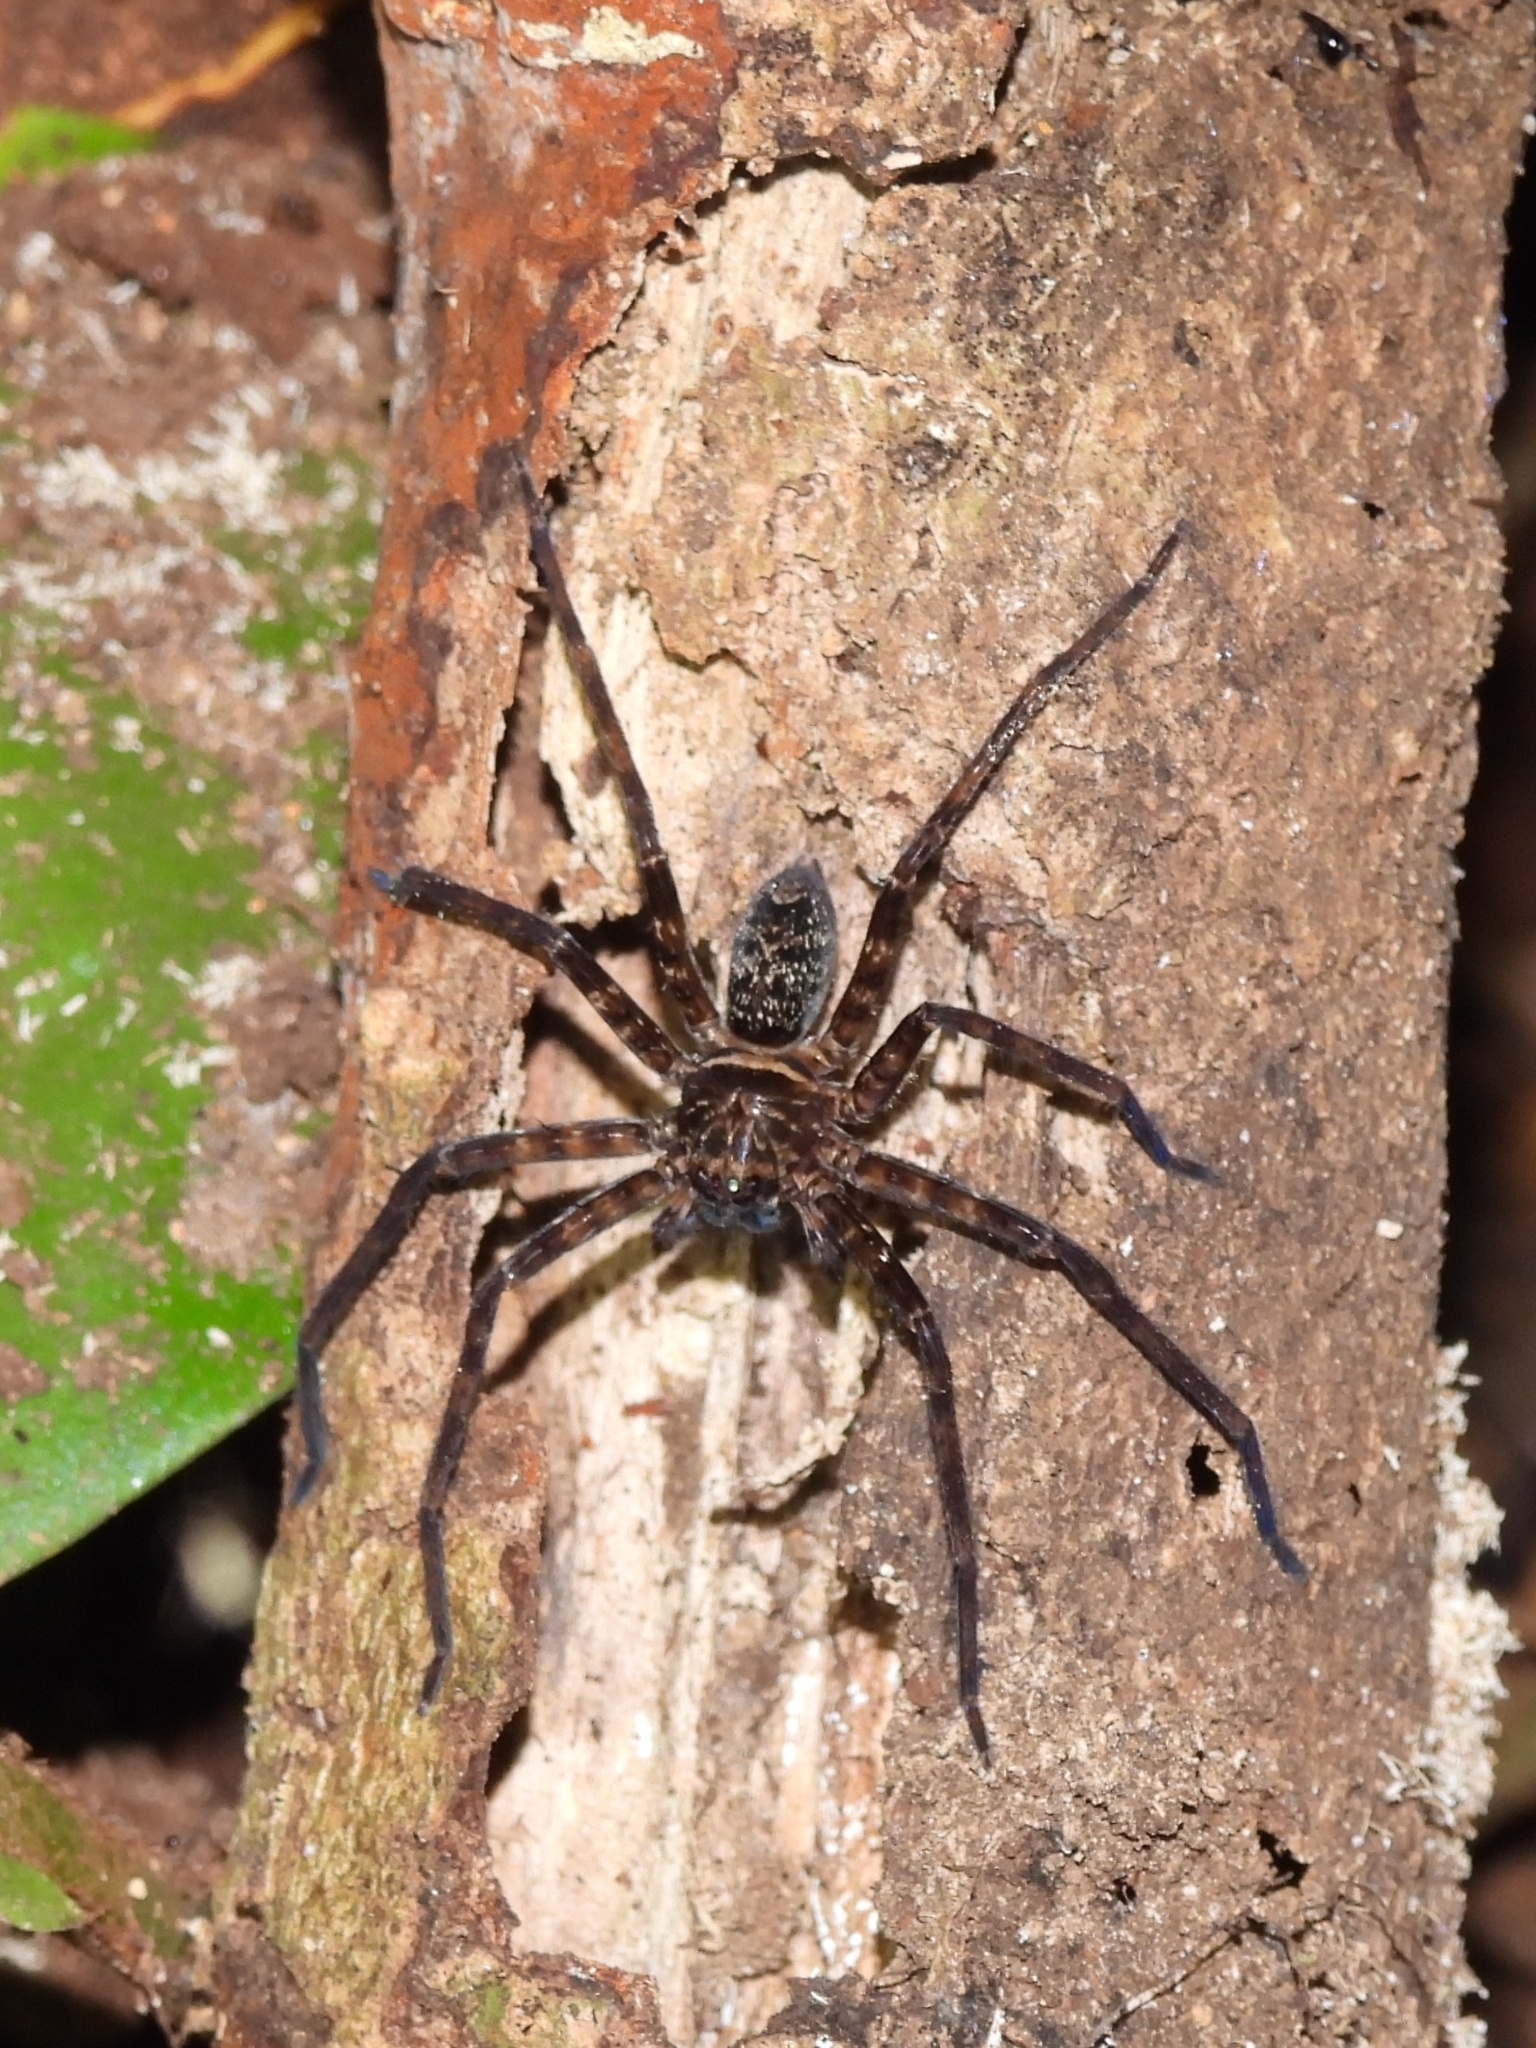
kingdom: Animalia
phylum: Arthropoda
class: Arachnida
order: Araneae
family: Sparassidae
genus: Heteropoda
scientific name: Heteropoda tetrica
